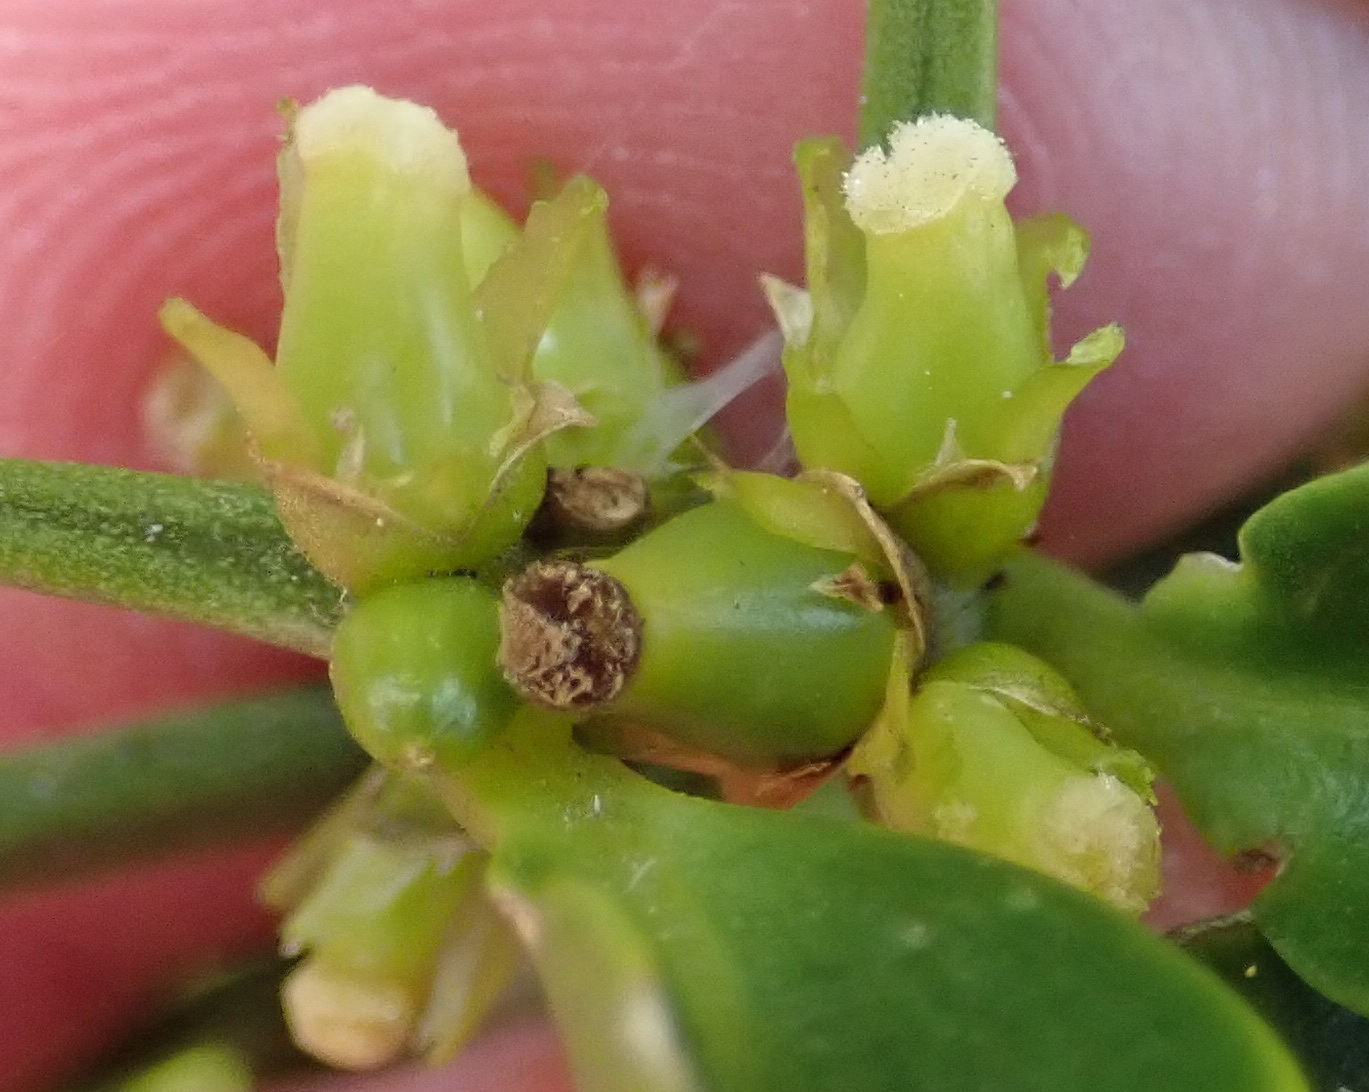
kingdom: Plantae
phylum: Tracheophyta
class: Magnoliopsida
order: Brassicales
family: Salvadoraceae
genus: Azima
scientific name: Azima tetracantha
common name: Needle bush
